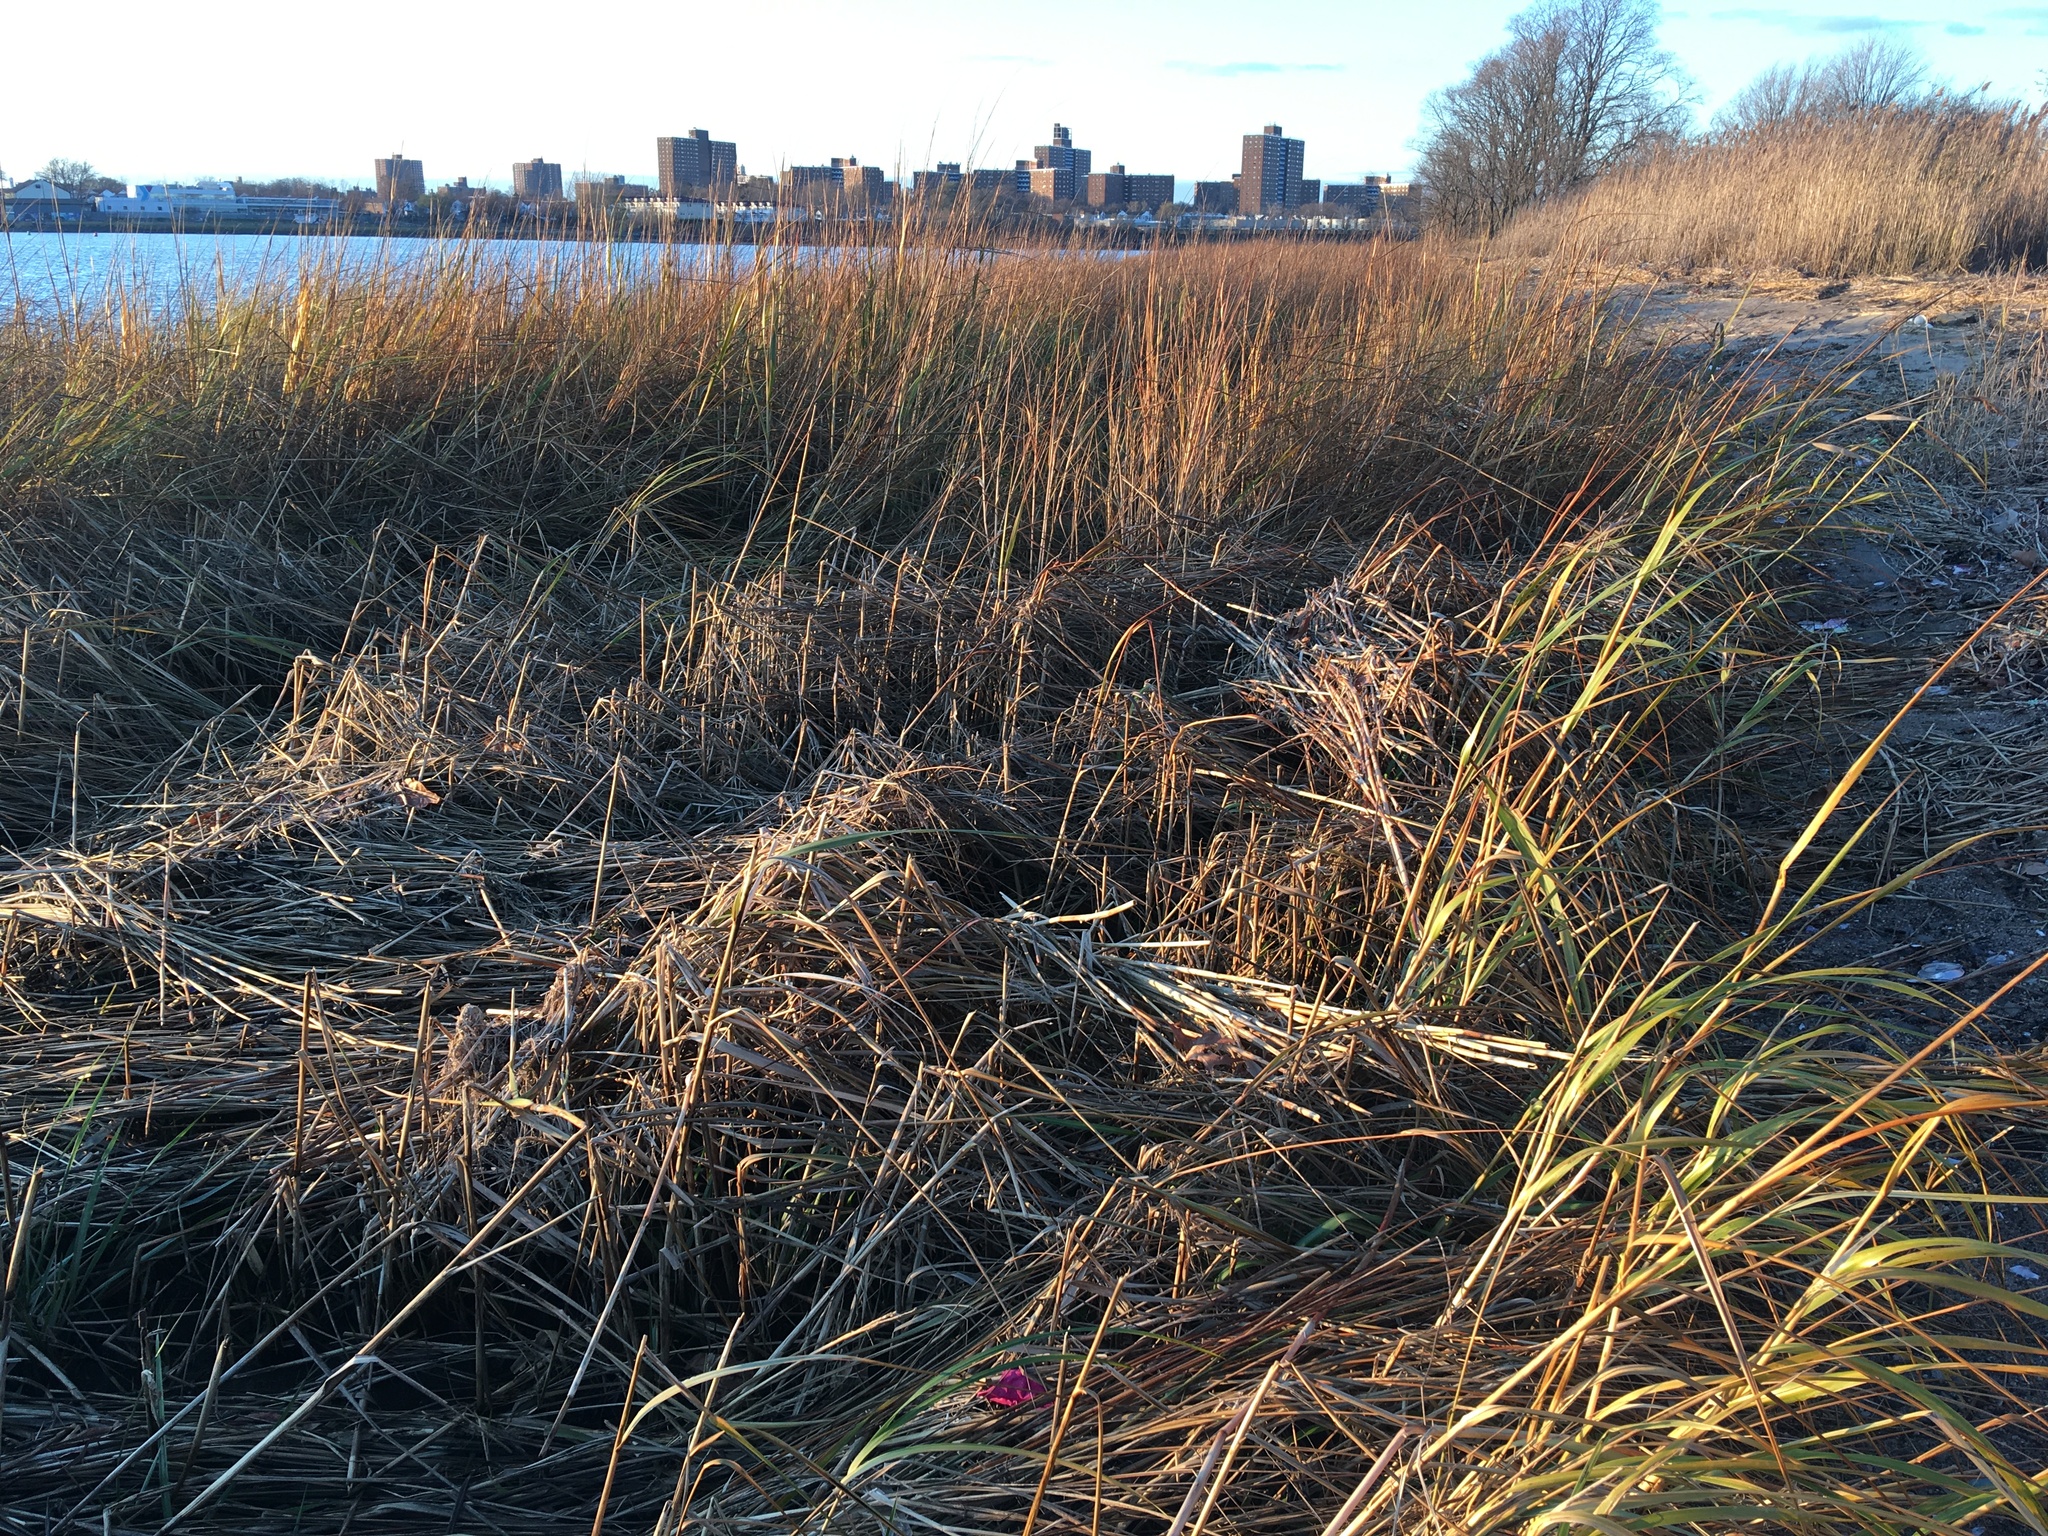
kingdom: Plantae
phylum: Tracheophyta
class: Liliopsida
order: Poales
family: Poaceae
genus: Sporobolus
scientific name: Sporobolus alterniflorus
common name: Atlantic cordgrass
